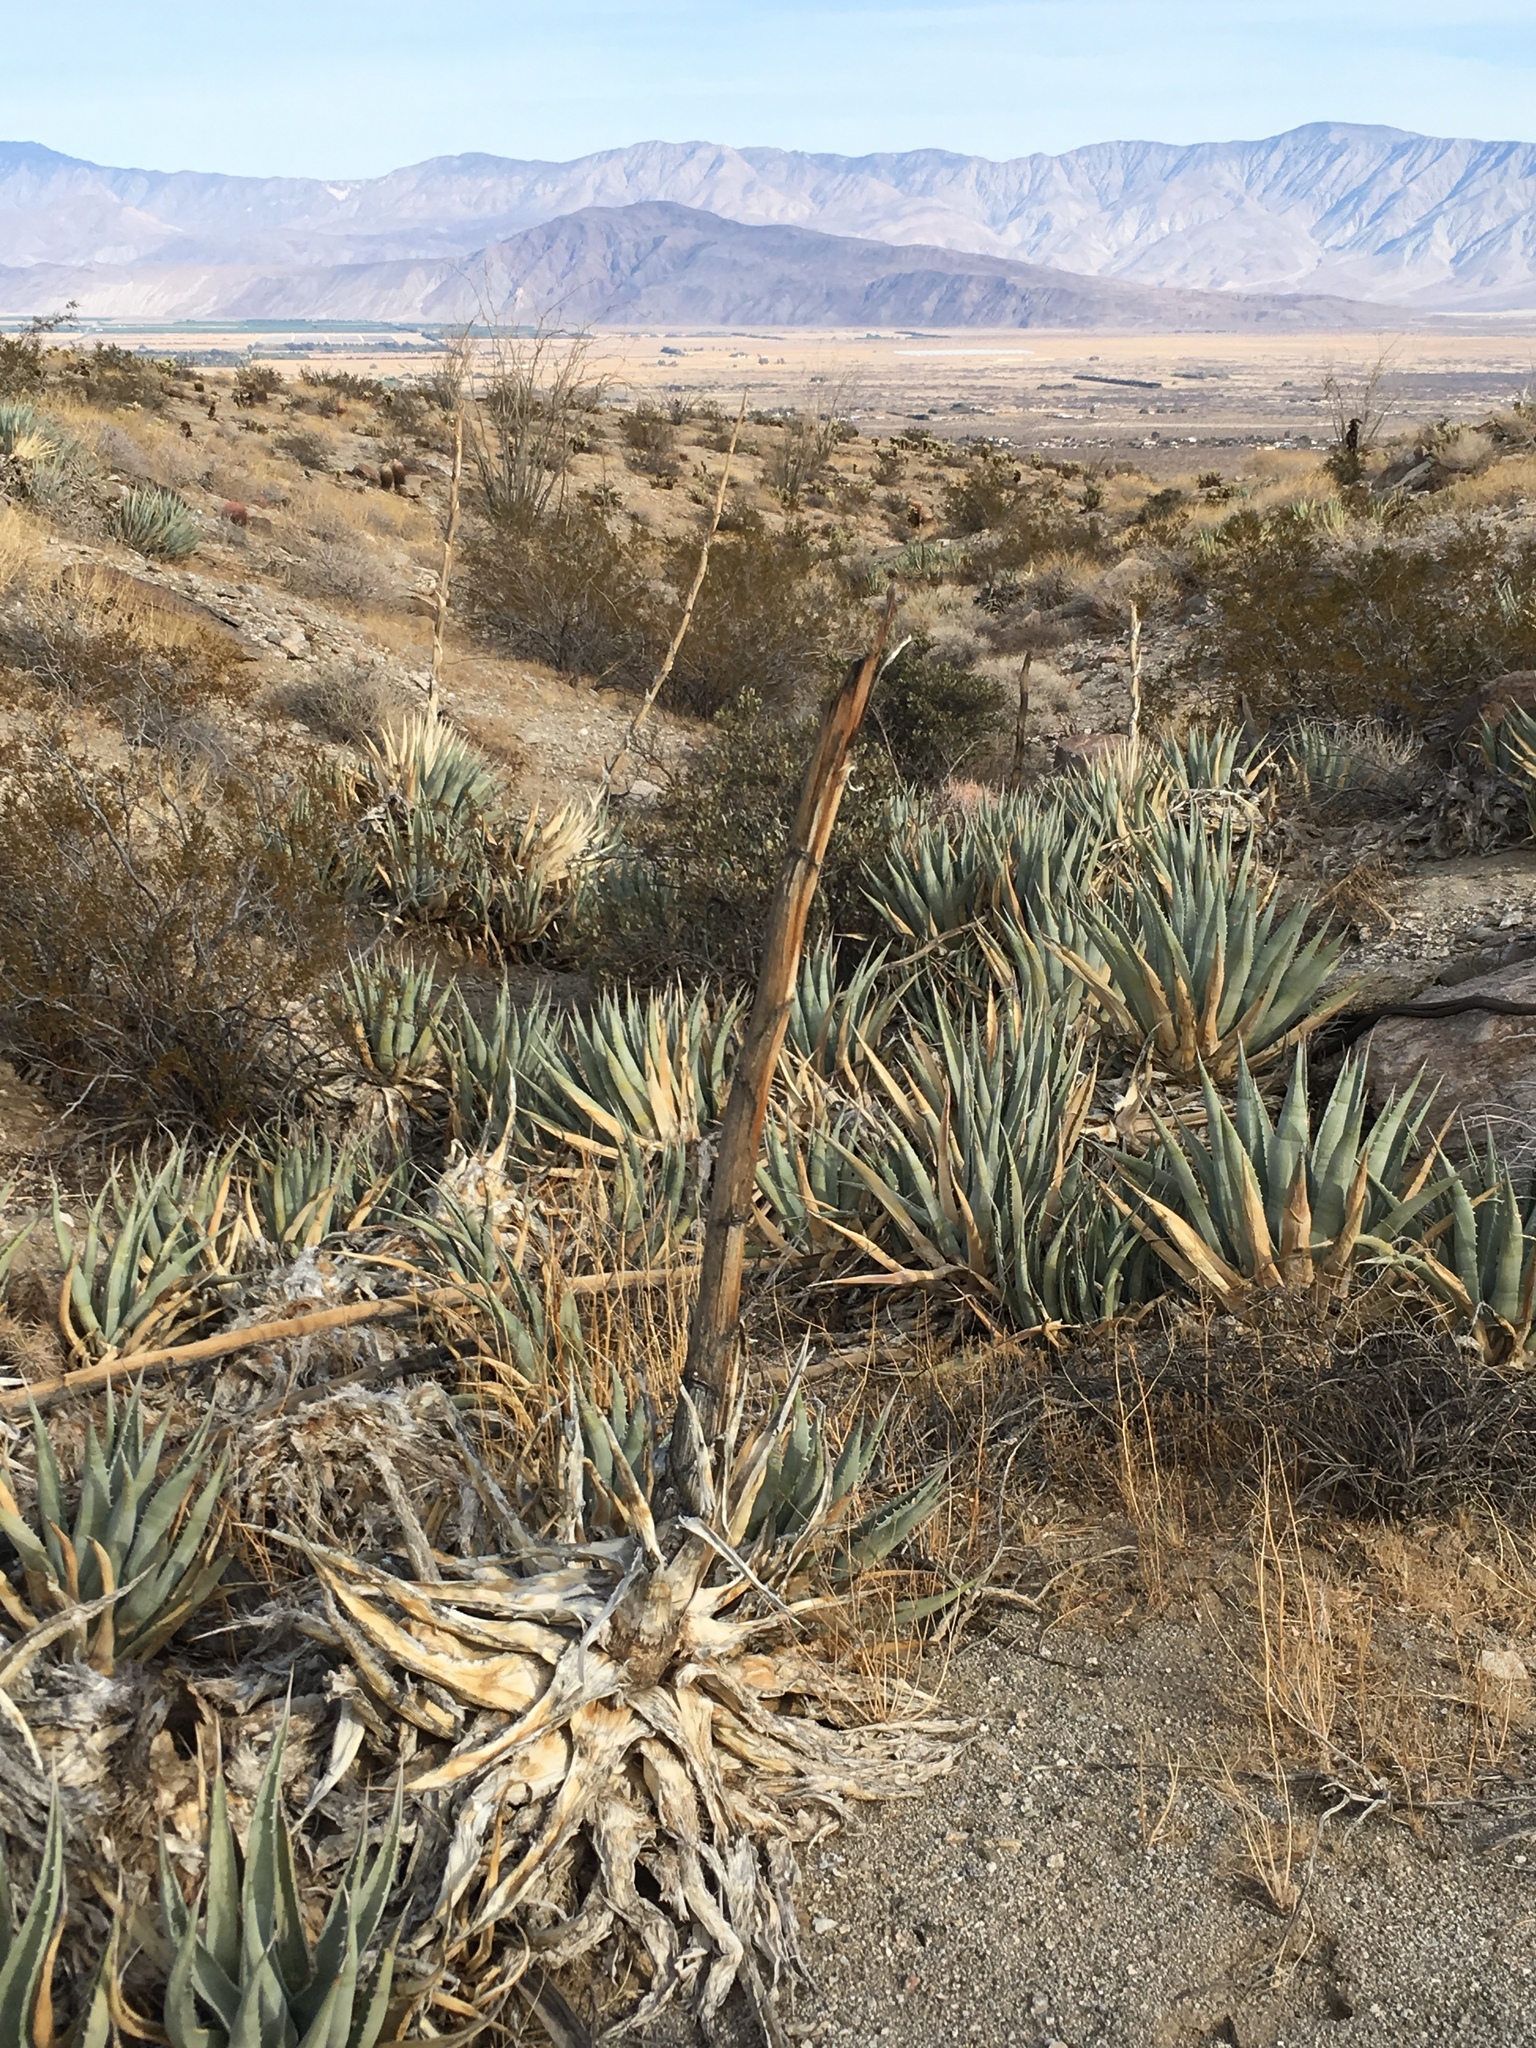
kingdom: Plantae
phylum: Tracheophyta
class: Liliopsida
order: Asparagales
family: Asparagaceae
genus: Agave
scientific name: Agave deserti
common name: Desert agave
